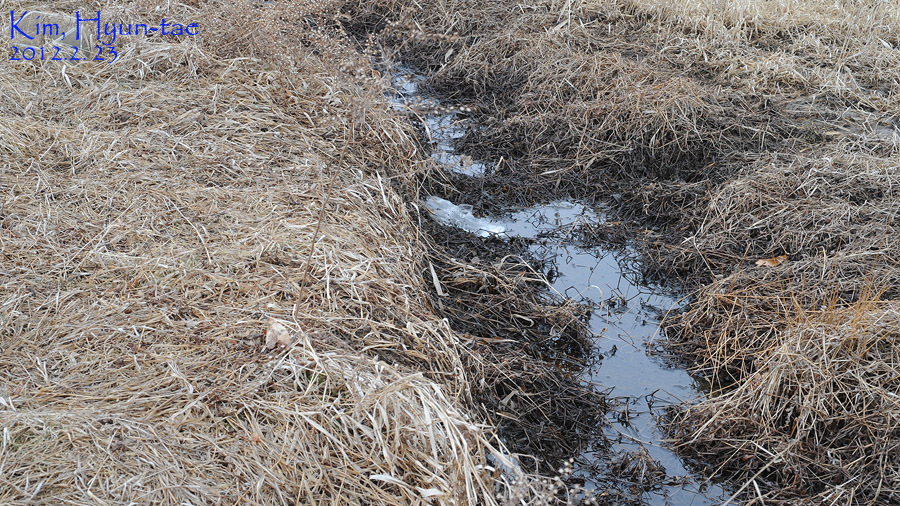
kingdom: Animalia
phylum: Chordata
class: Amphibia
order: Anura
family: Ranidae
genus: Rana
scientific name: Rana coreana
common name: Korean brown frog
